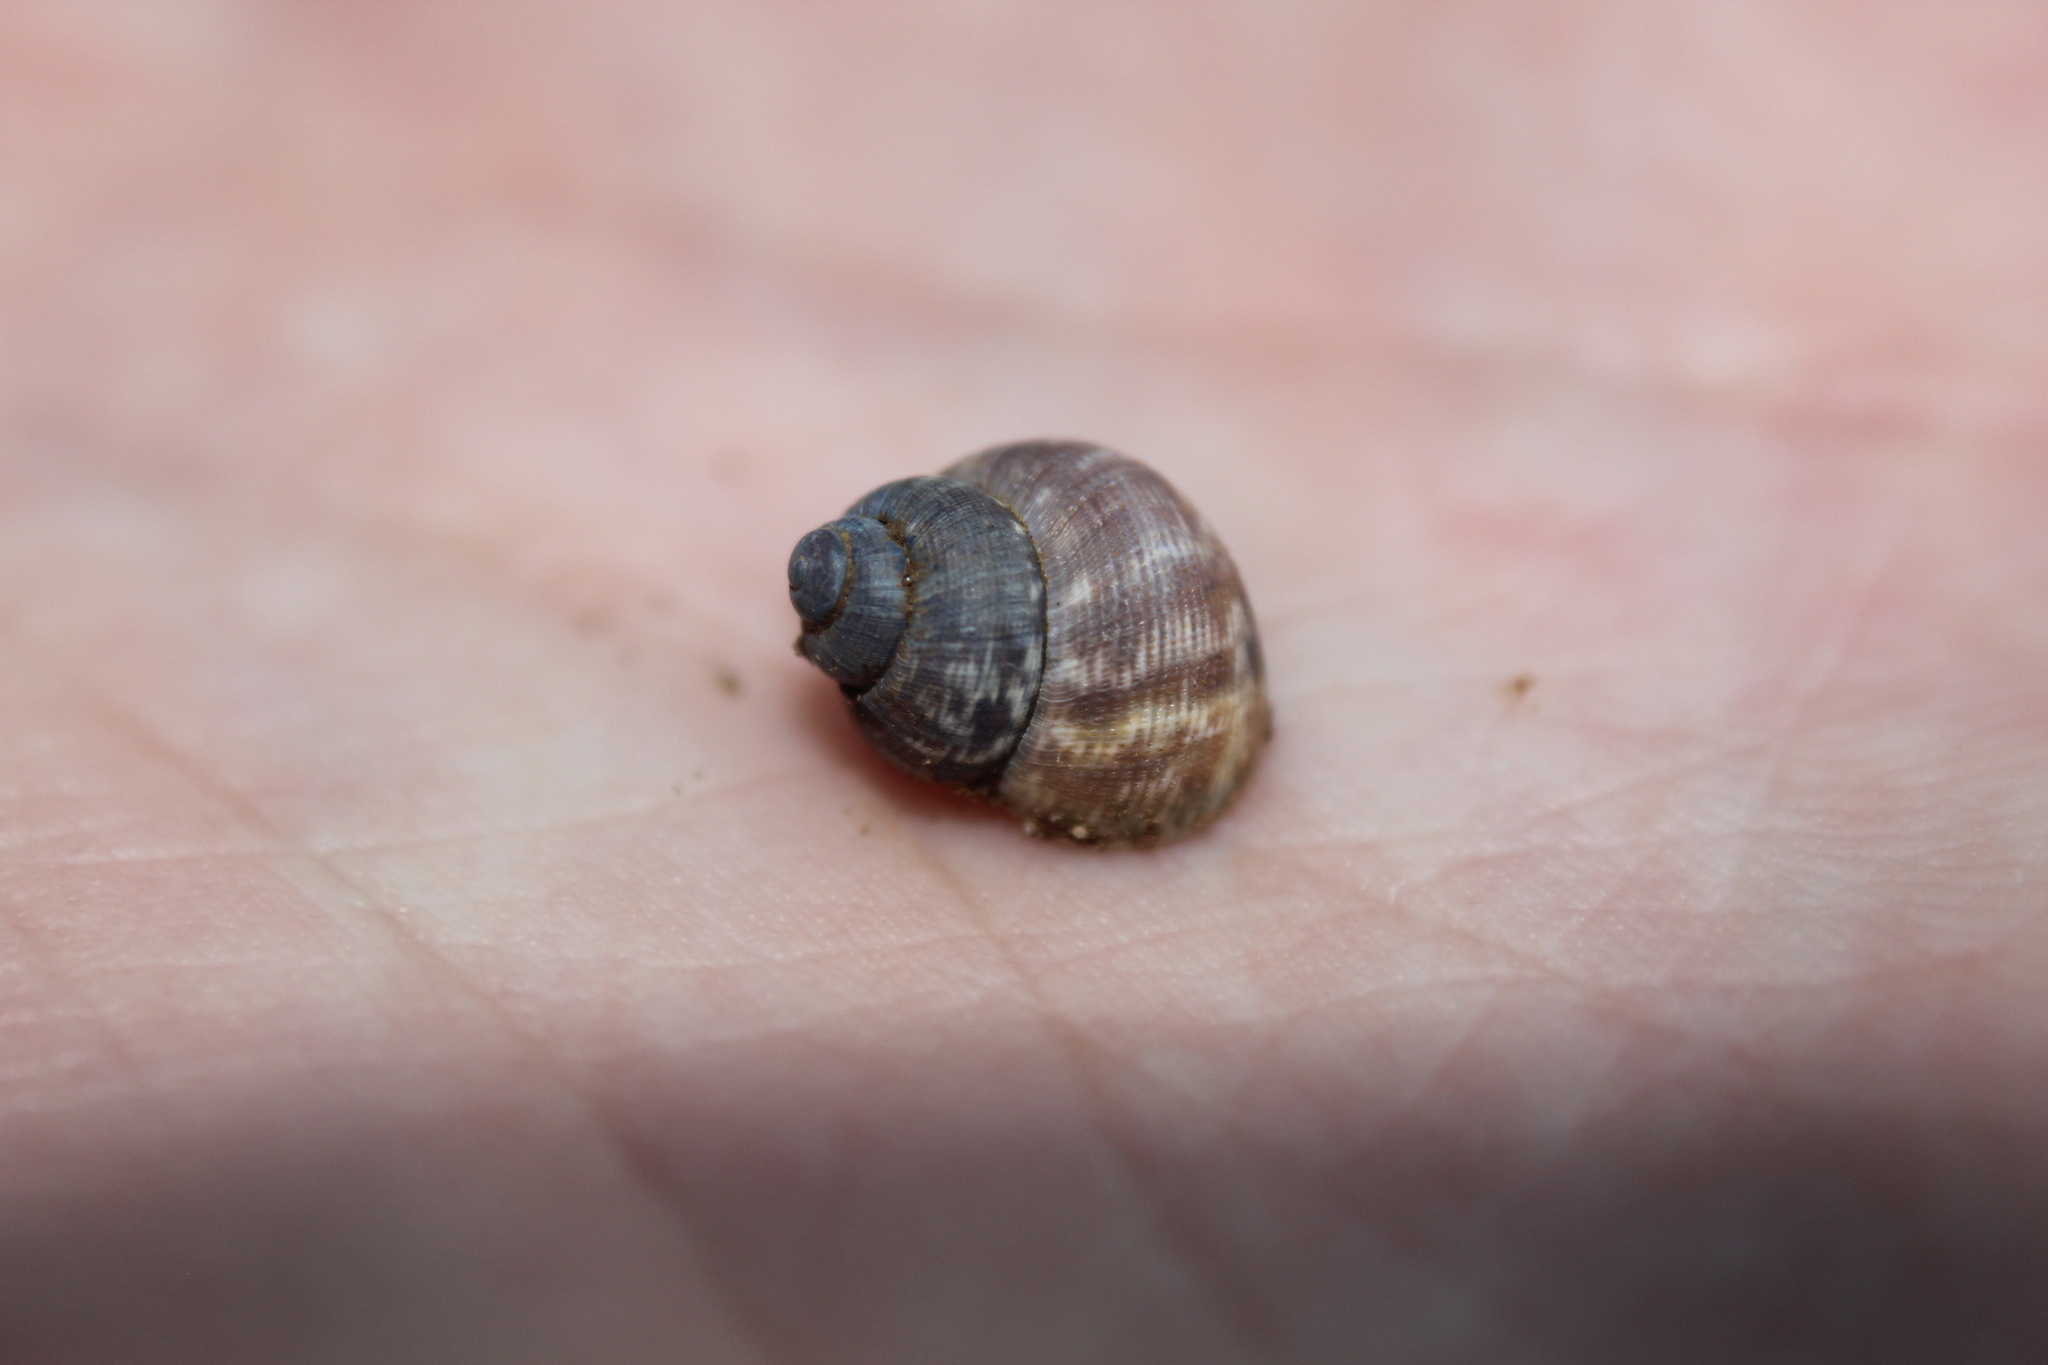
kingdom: Animalia
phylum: Mollusca
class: Gastropoda
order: Littorinimorpha
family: Pomatiidae
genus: Pomatias
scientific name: Pomatias elegans
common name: Red-mouthed snail
